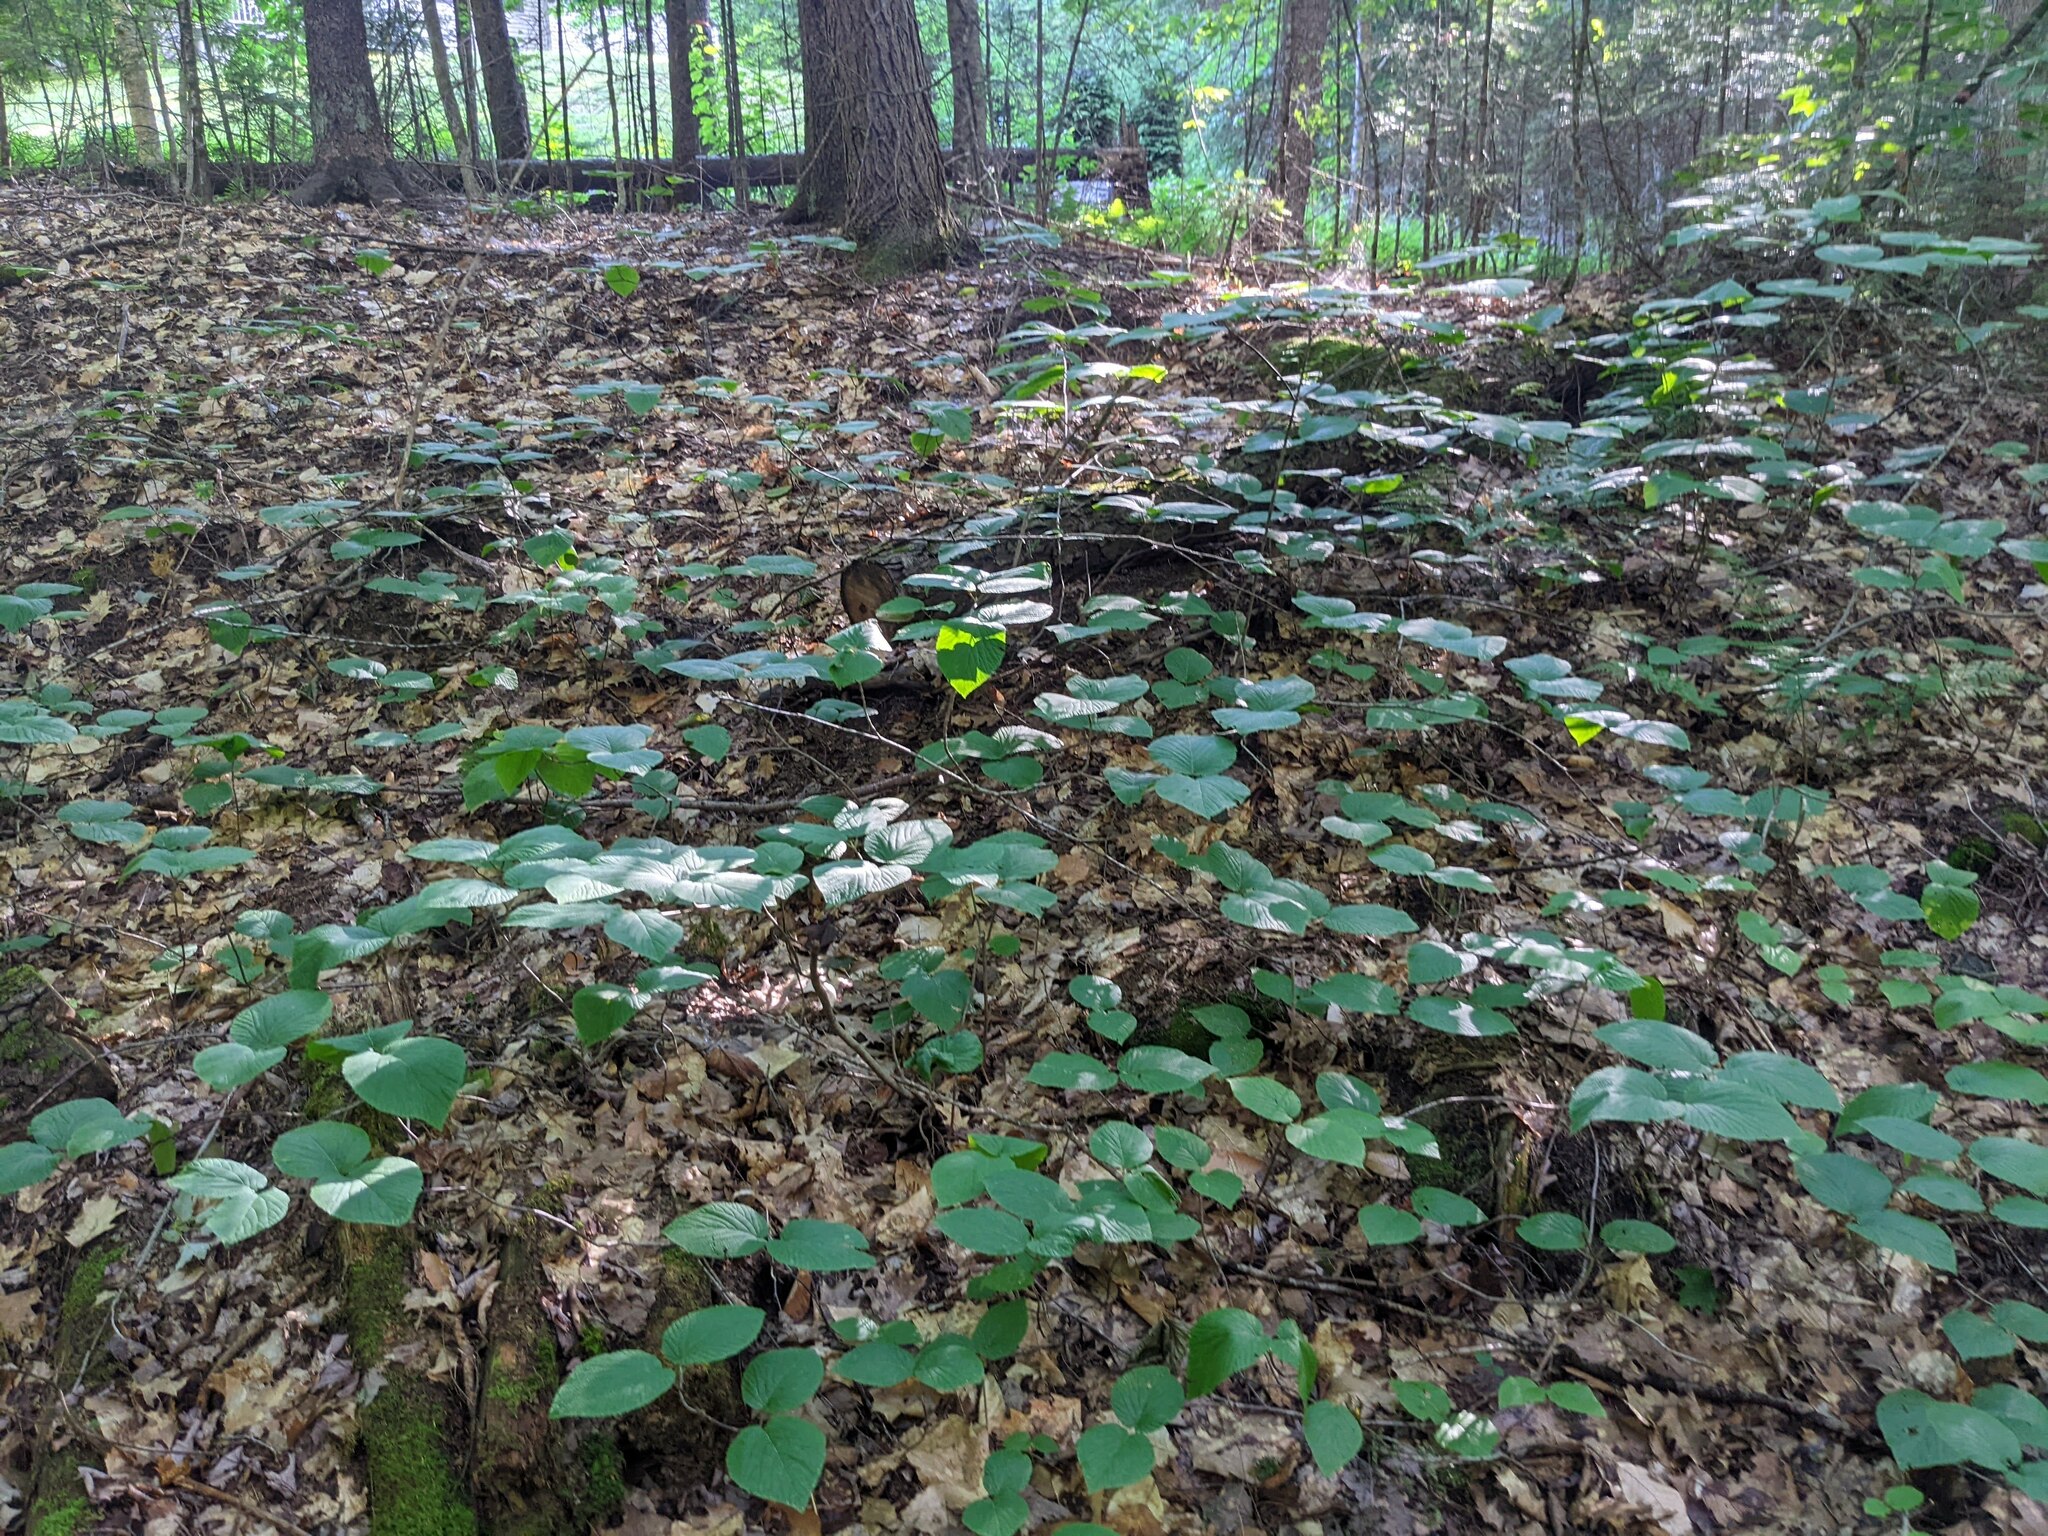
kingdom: Plantae
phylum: Tracheophyta
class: Magnoliopsida
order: Dipsacales
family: Viburnaceae
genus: Viburnum
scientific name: Viburnum lantanoides
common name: Hobblebush
